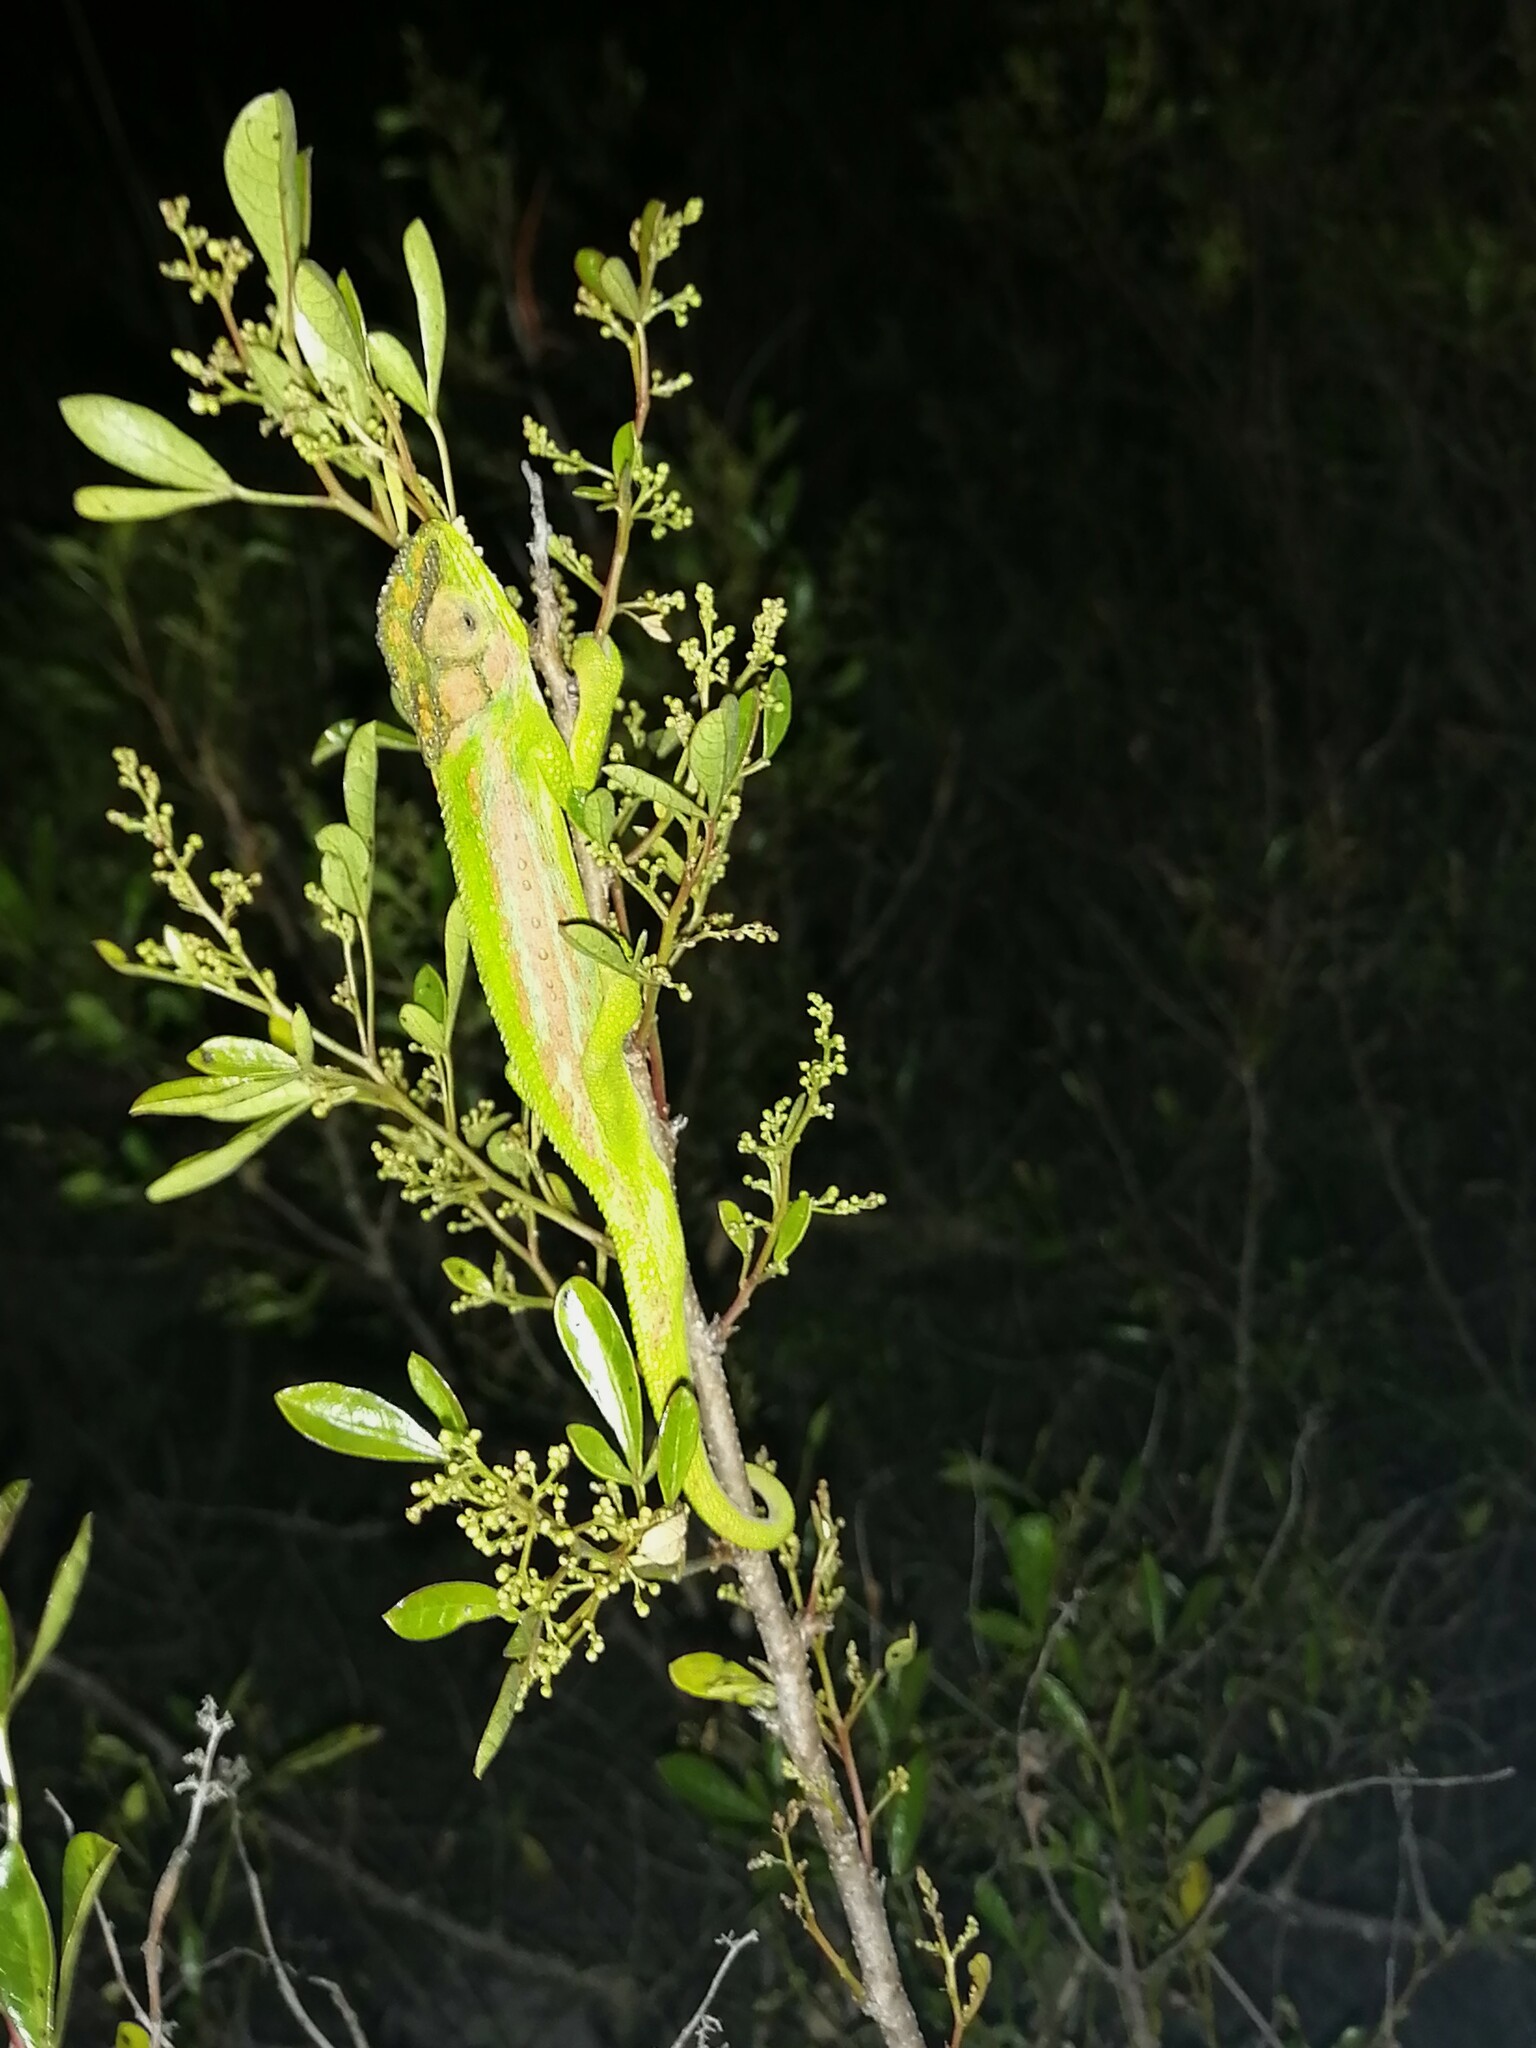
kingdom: Animalia
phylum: Chordata
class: Squamata
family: Chamaeleonidae
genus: Bradypodion
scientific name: Bradypodion pumilum
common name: Cape dwarf chameleon
